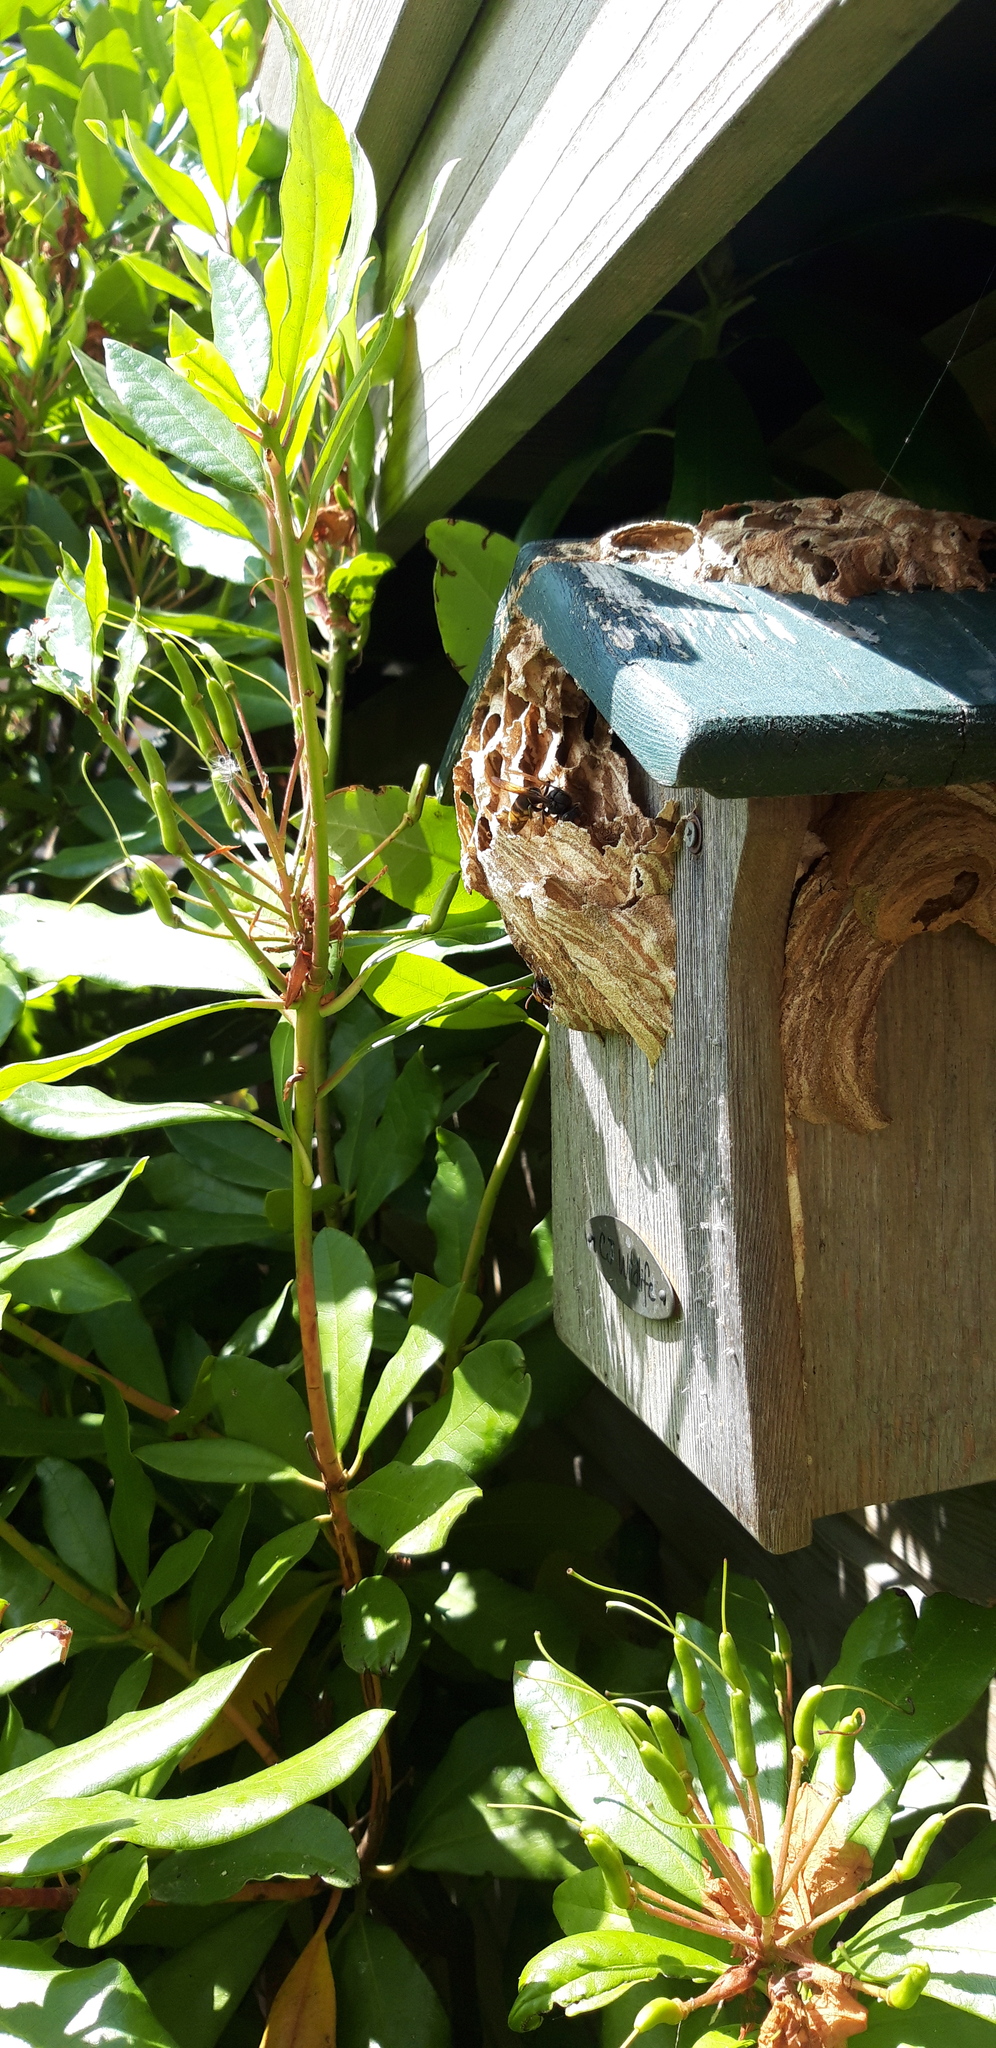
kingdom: Animalia
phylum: Arthropoda
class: Insecta
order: Hymenoptera
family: Vespidae
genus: Vespa
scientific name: Vespa velutina
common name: Asian hornet
